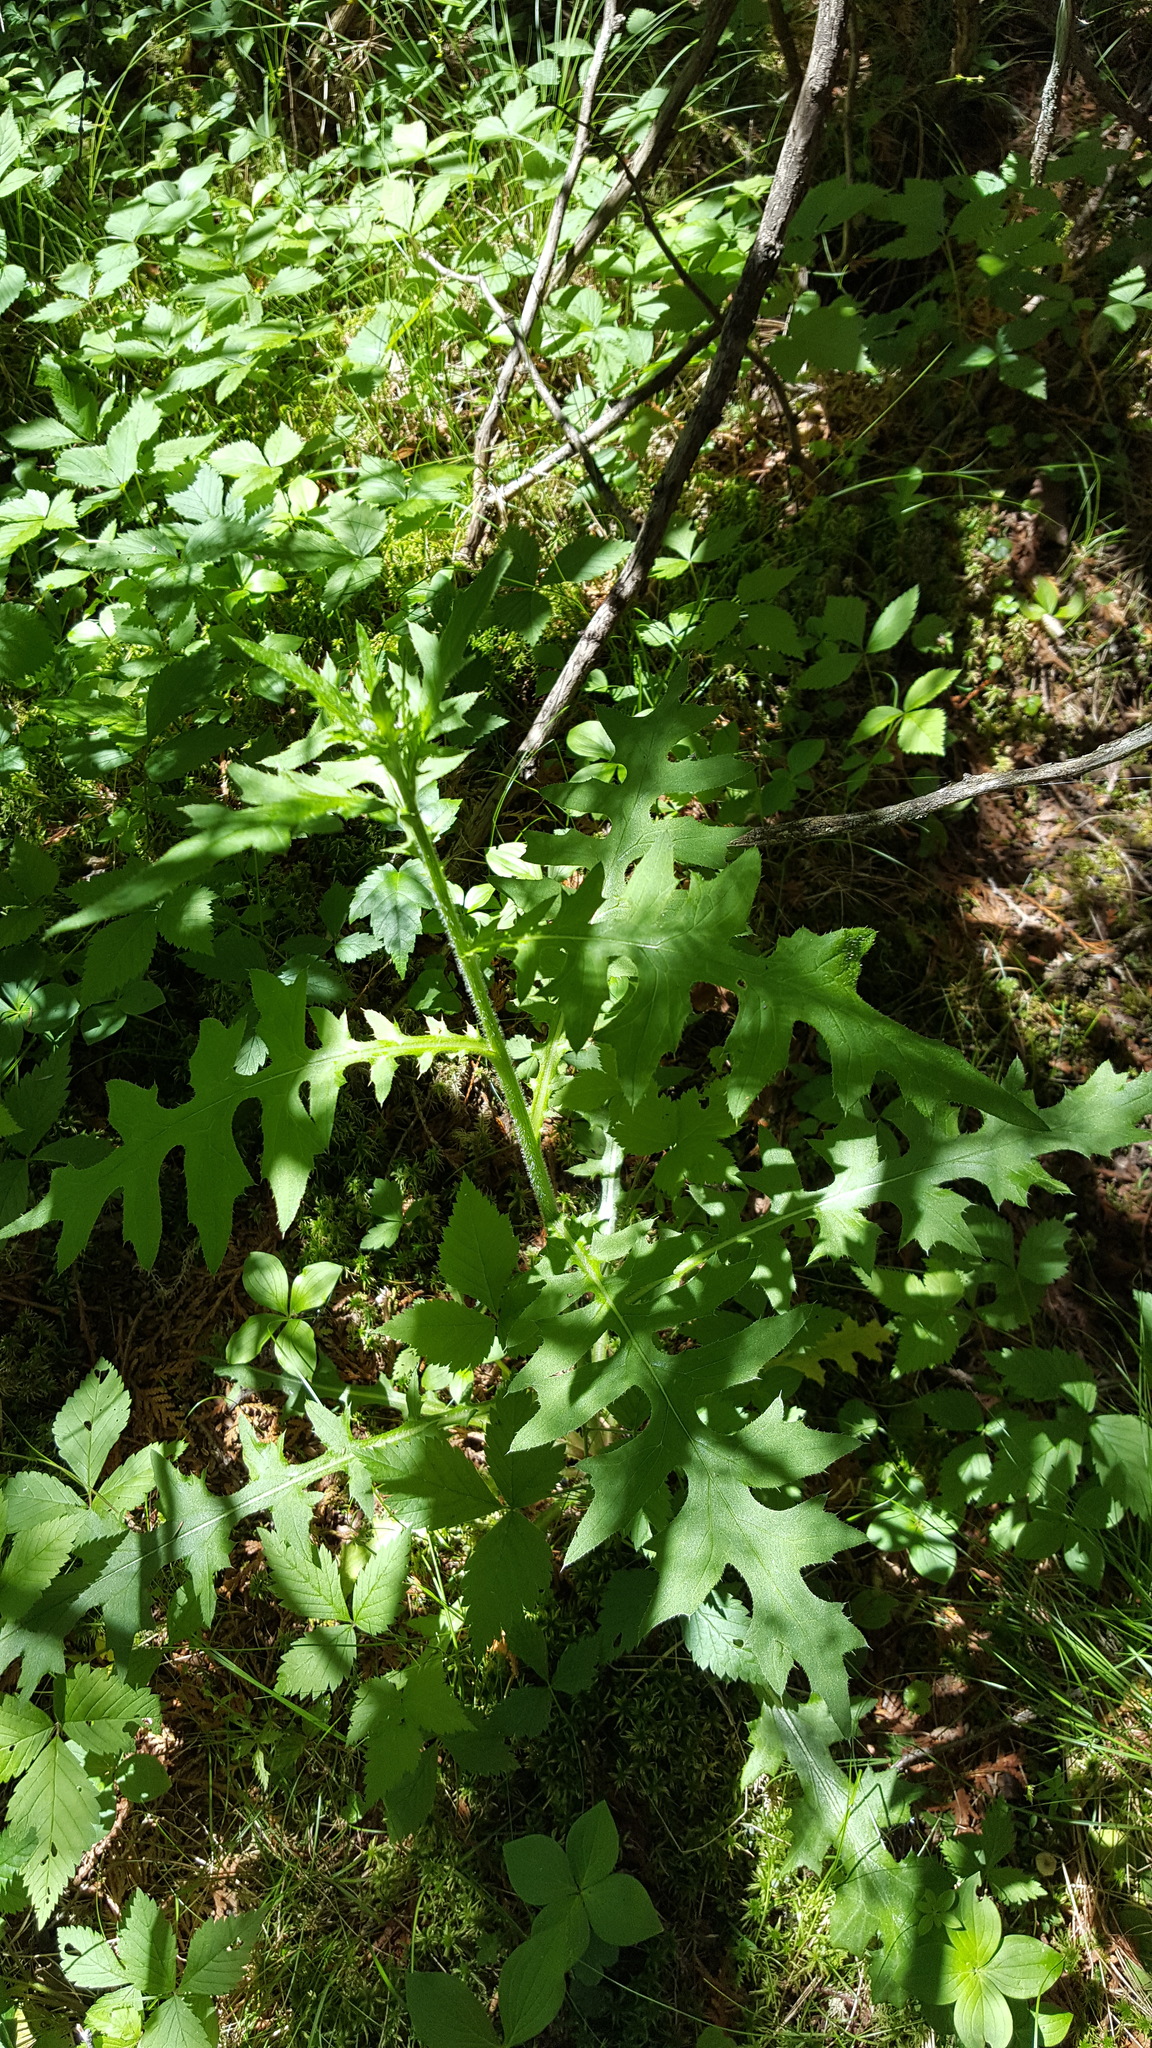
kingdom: Plantae
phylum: Tracheophyta
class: Magnoliopsida
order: Asterales
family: Asteraceae
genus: Cirsium
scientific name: Cirsium muticum
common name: Dunce-nettle
